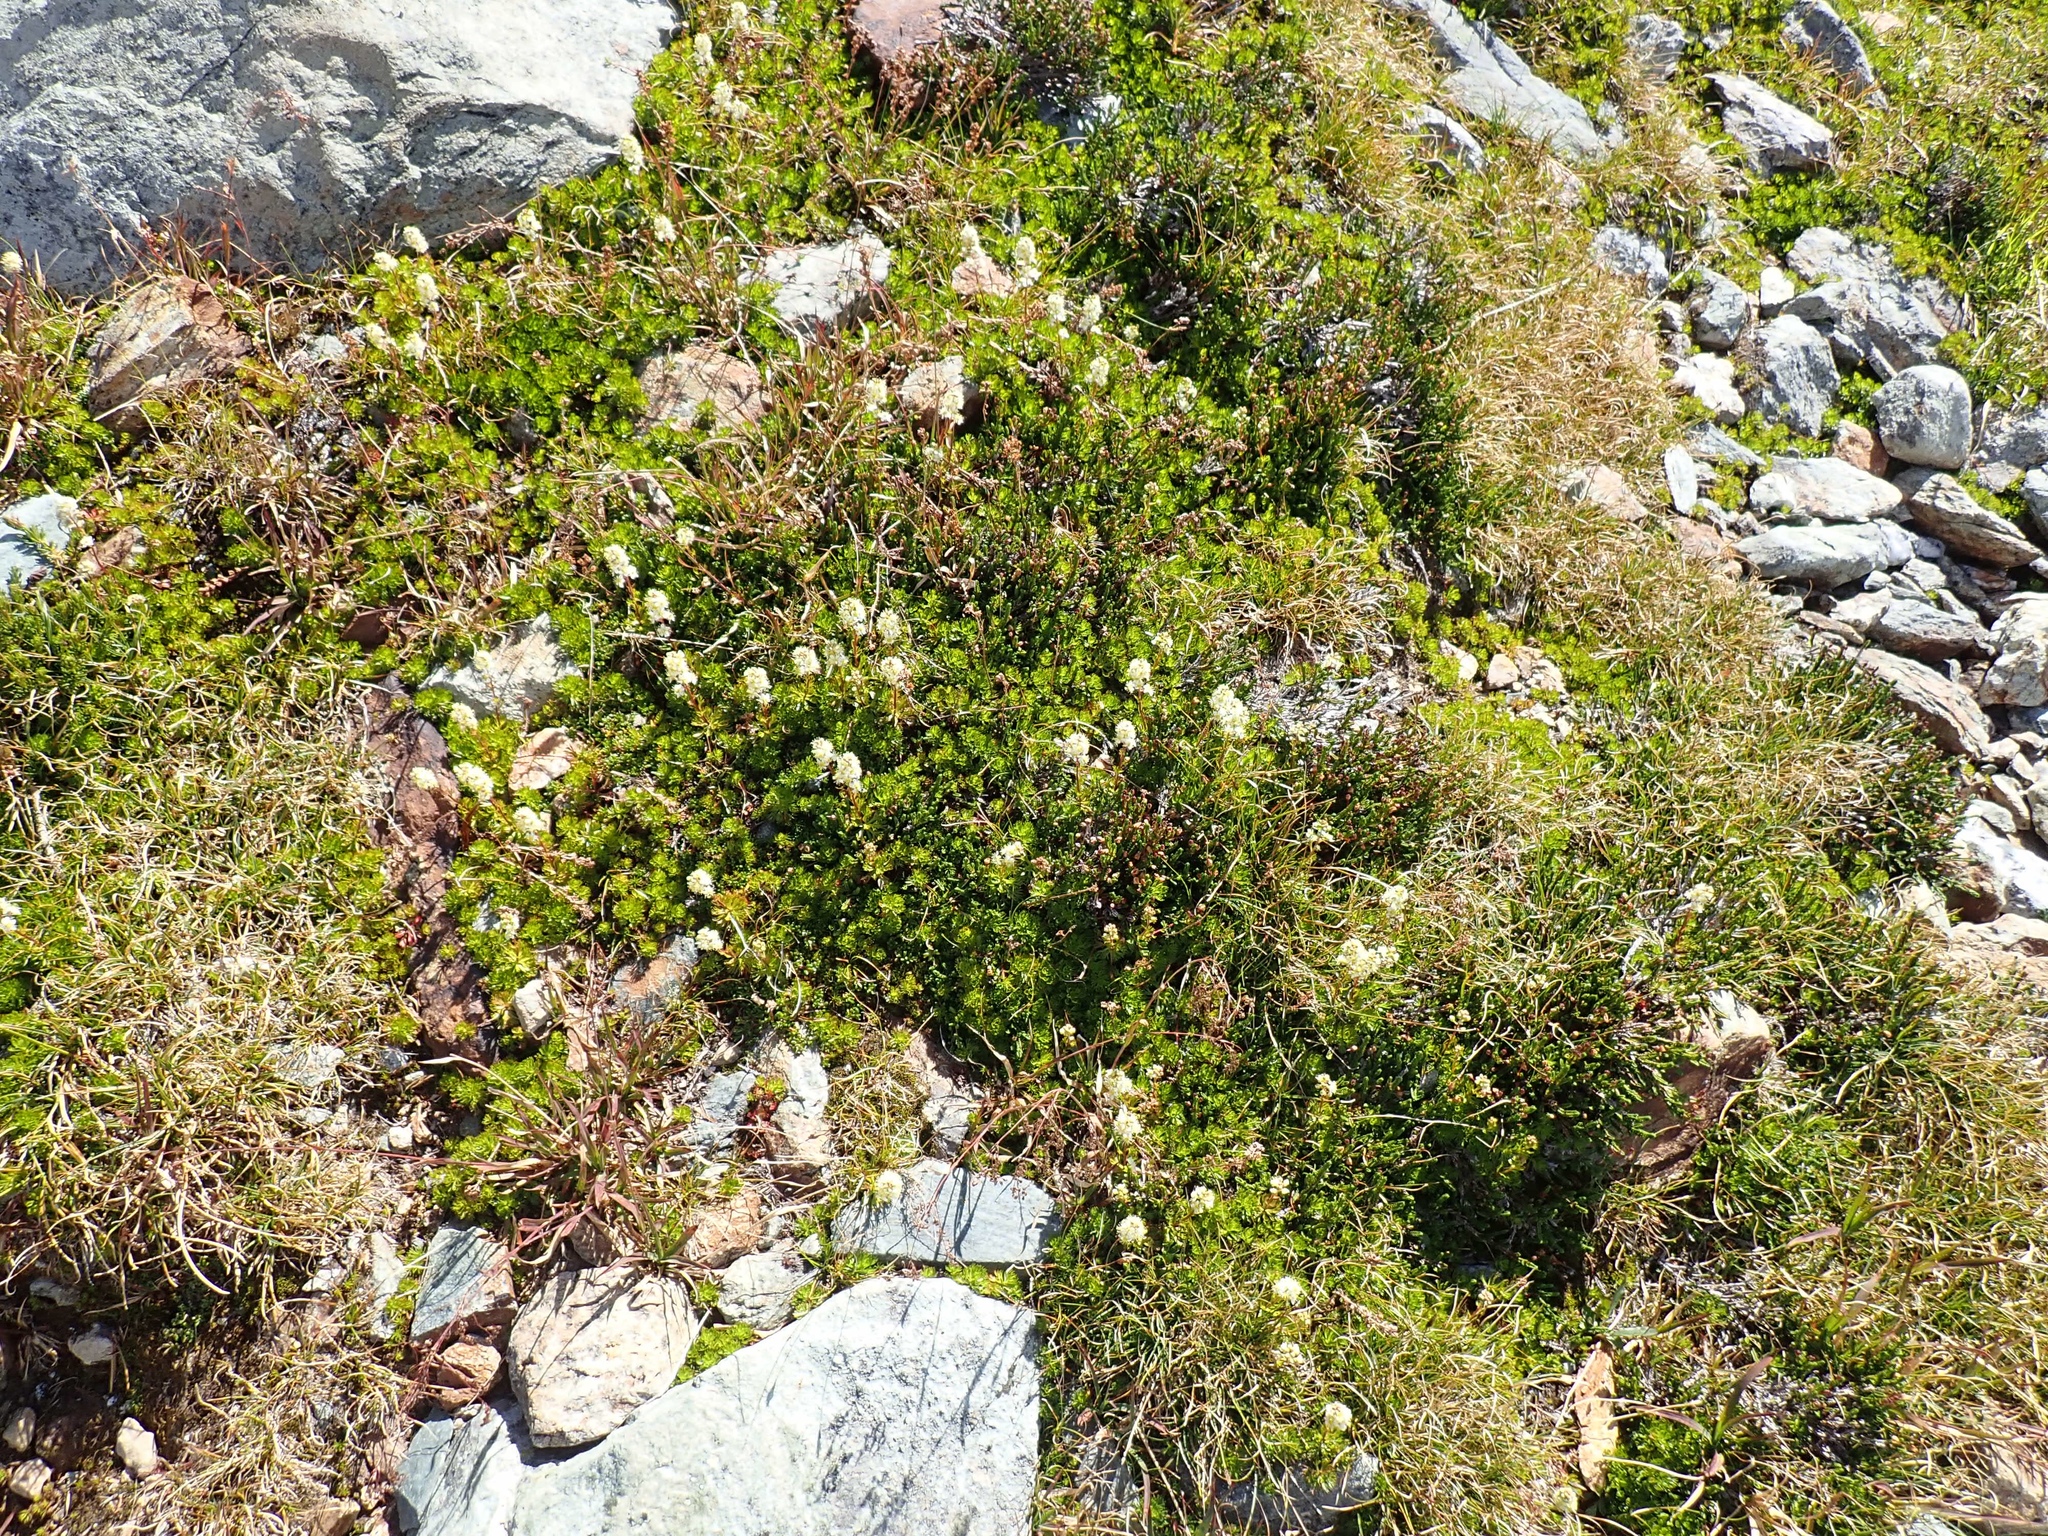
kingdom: Plantae
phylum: Tracheophyta
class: Magnoliopsida
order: Rosales
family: Rosaceae
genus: Luetkea
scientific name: Luetkea pectinata
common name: Partridgefoot
